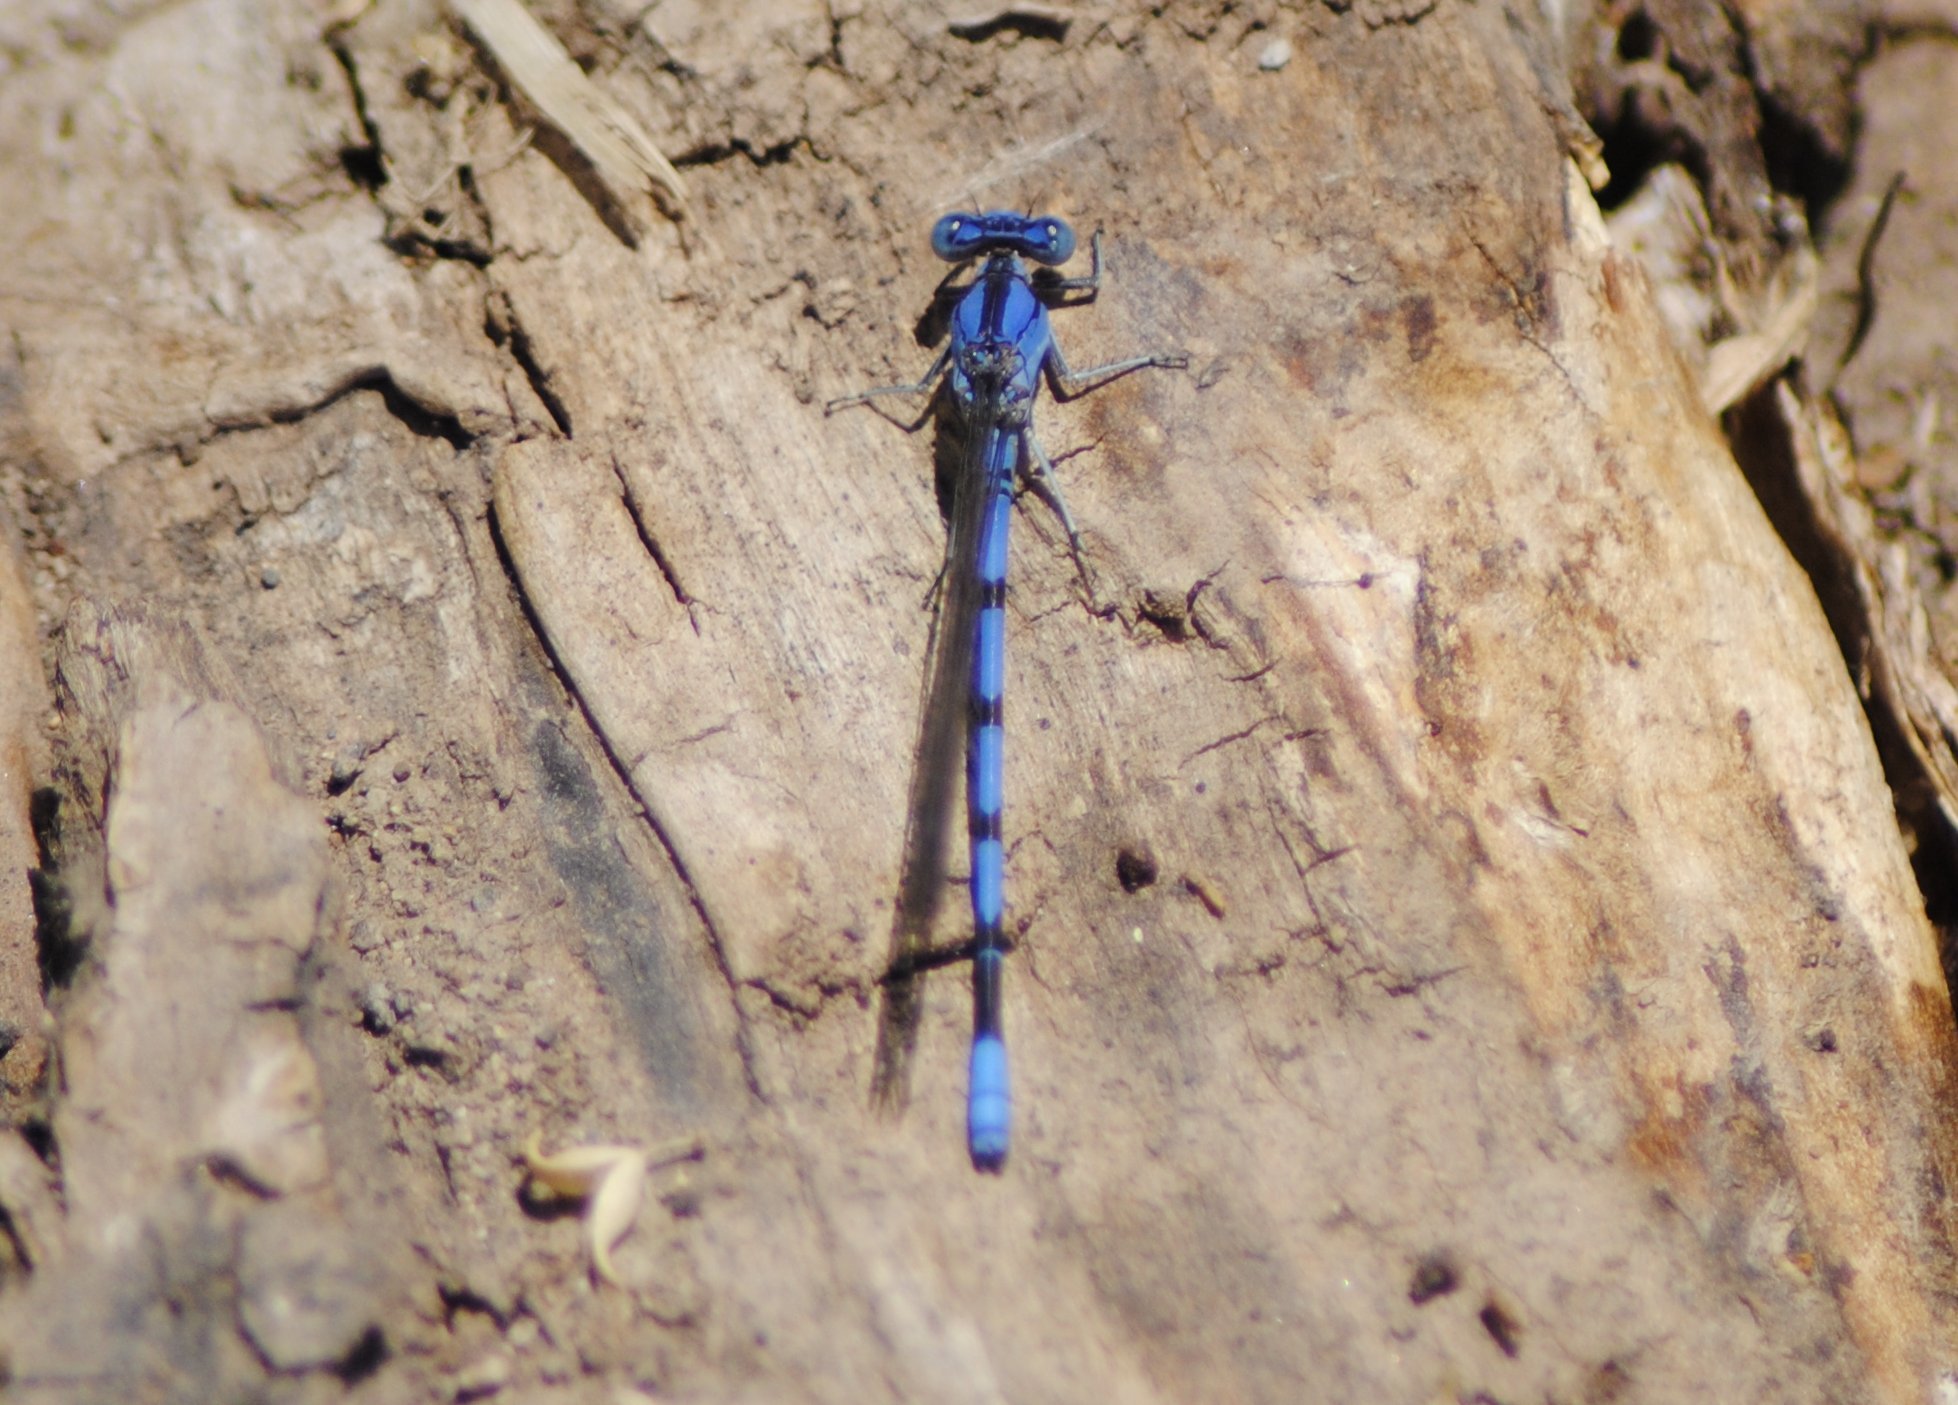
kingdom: Animalia
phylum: Arthropoda
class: Insecta
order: Odonata
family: Coenagrionidae
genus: Argia
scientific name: Argia nahuana
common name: Aztec dancer
